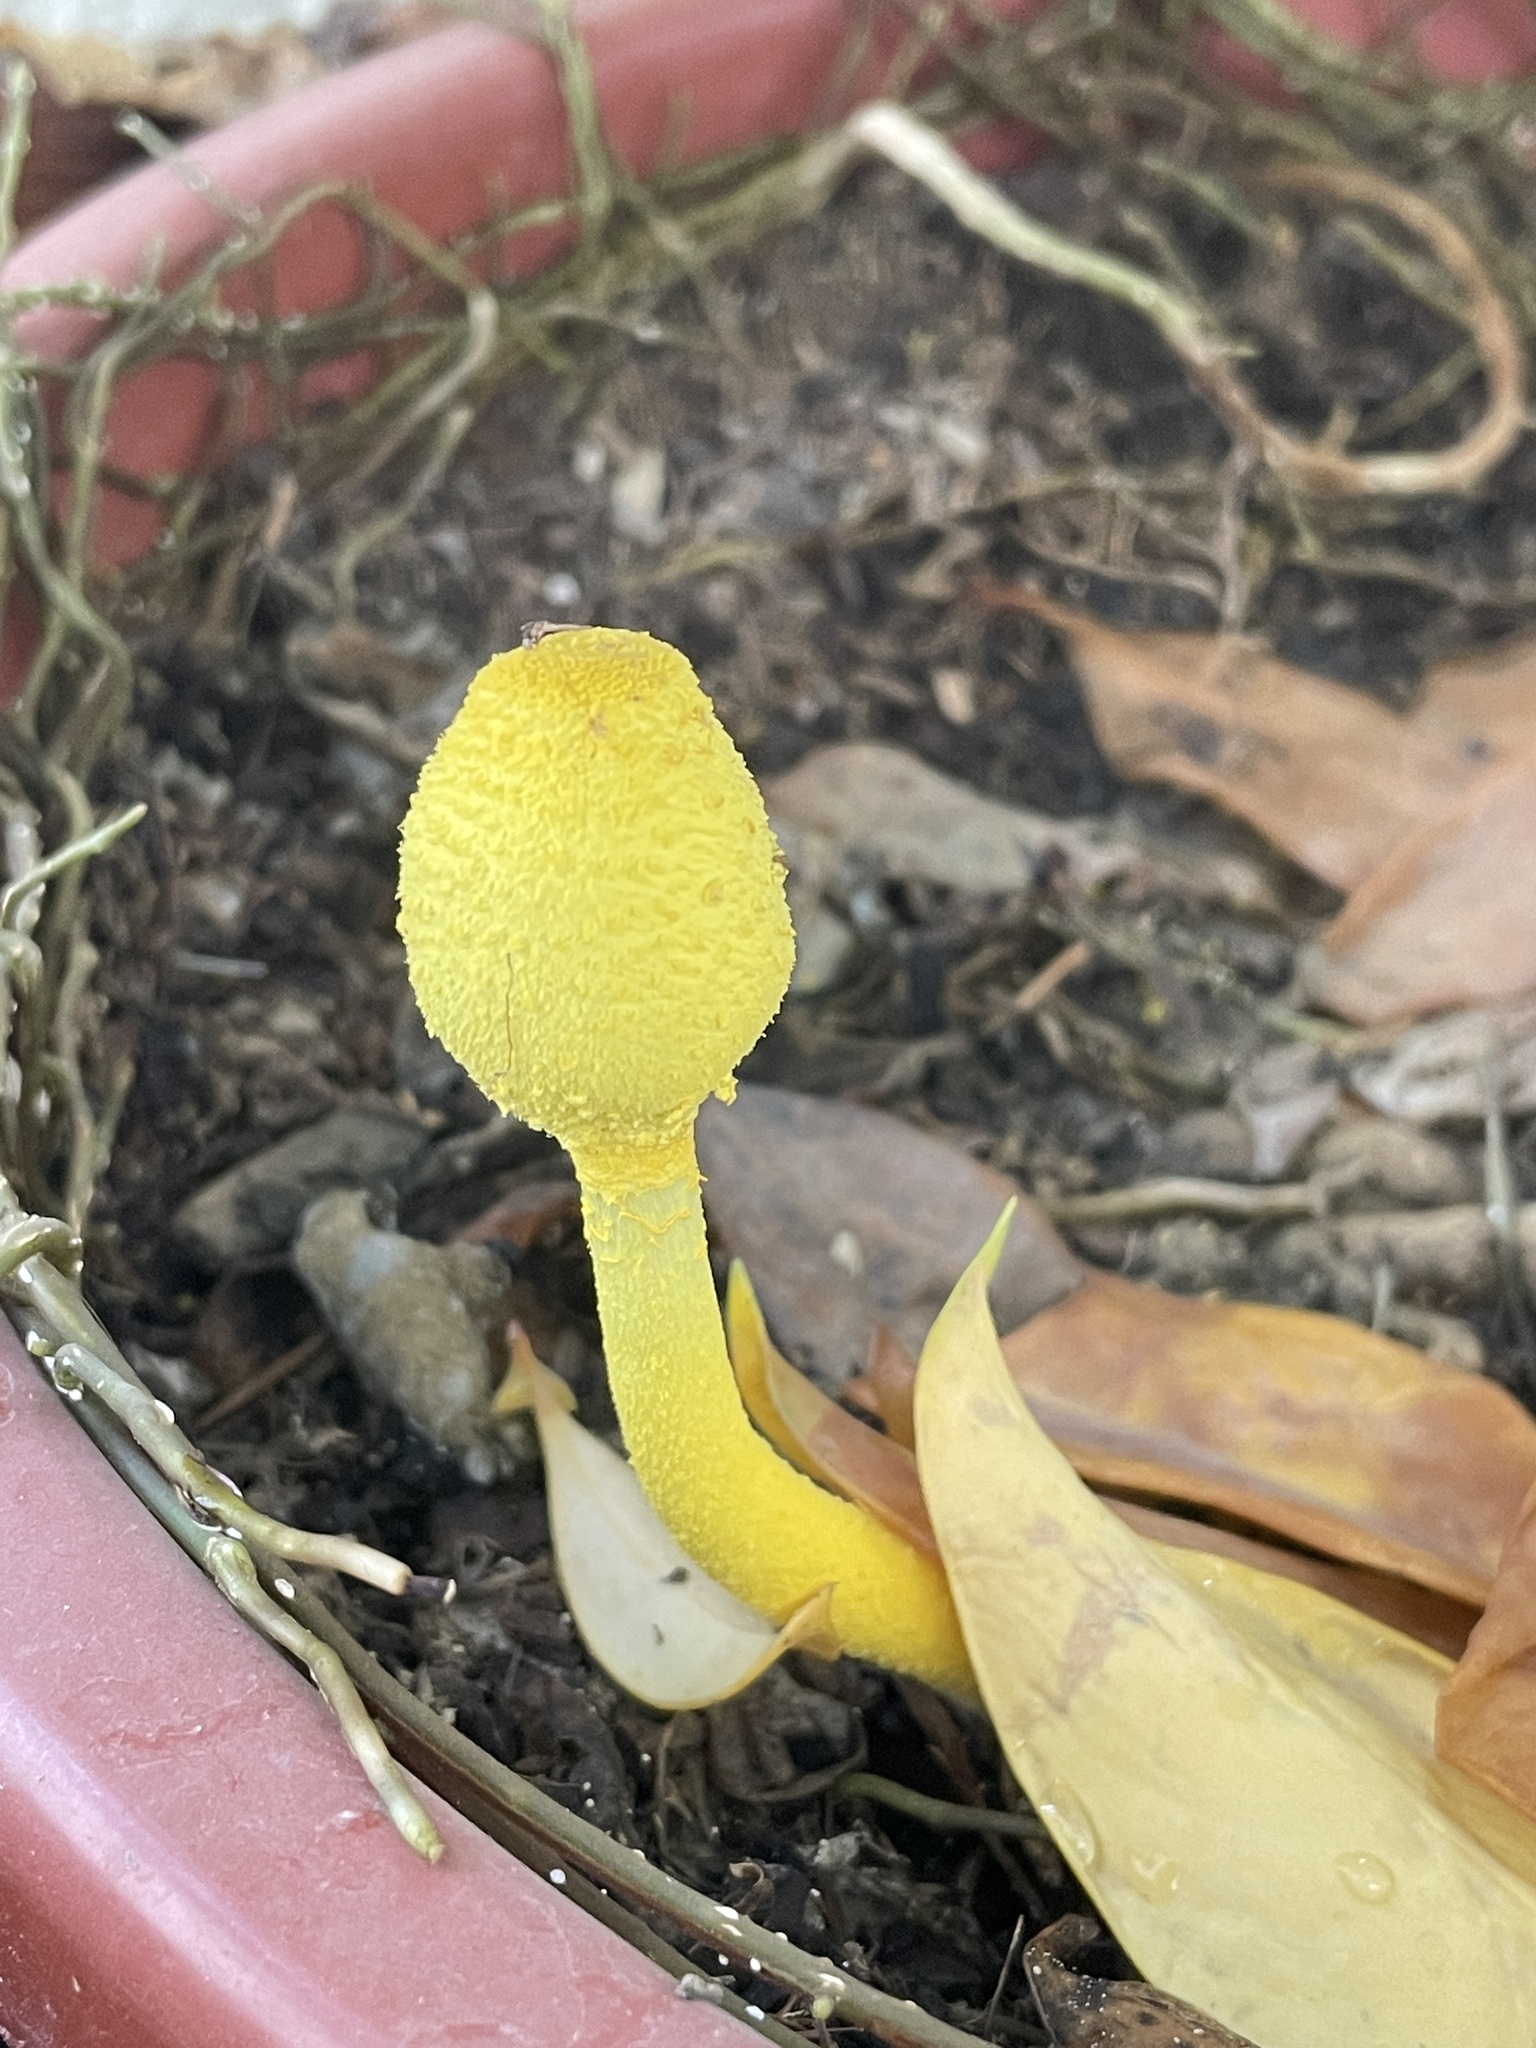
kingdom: Fungi
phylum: Basidiomycota
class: Agaricomycetes
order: Agaricales
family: Agaricaceae
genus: Leucocoprinus
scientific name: Leucocoprinus birnbaumii
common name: Plantpot dapperling
